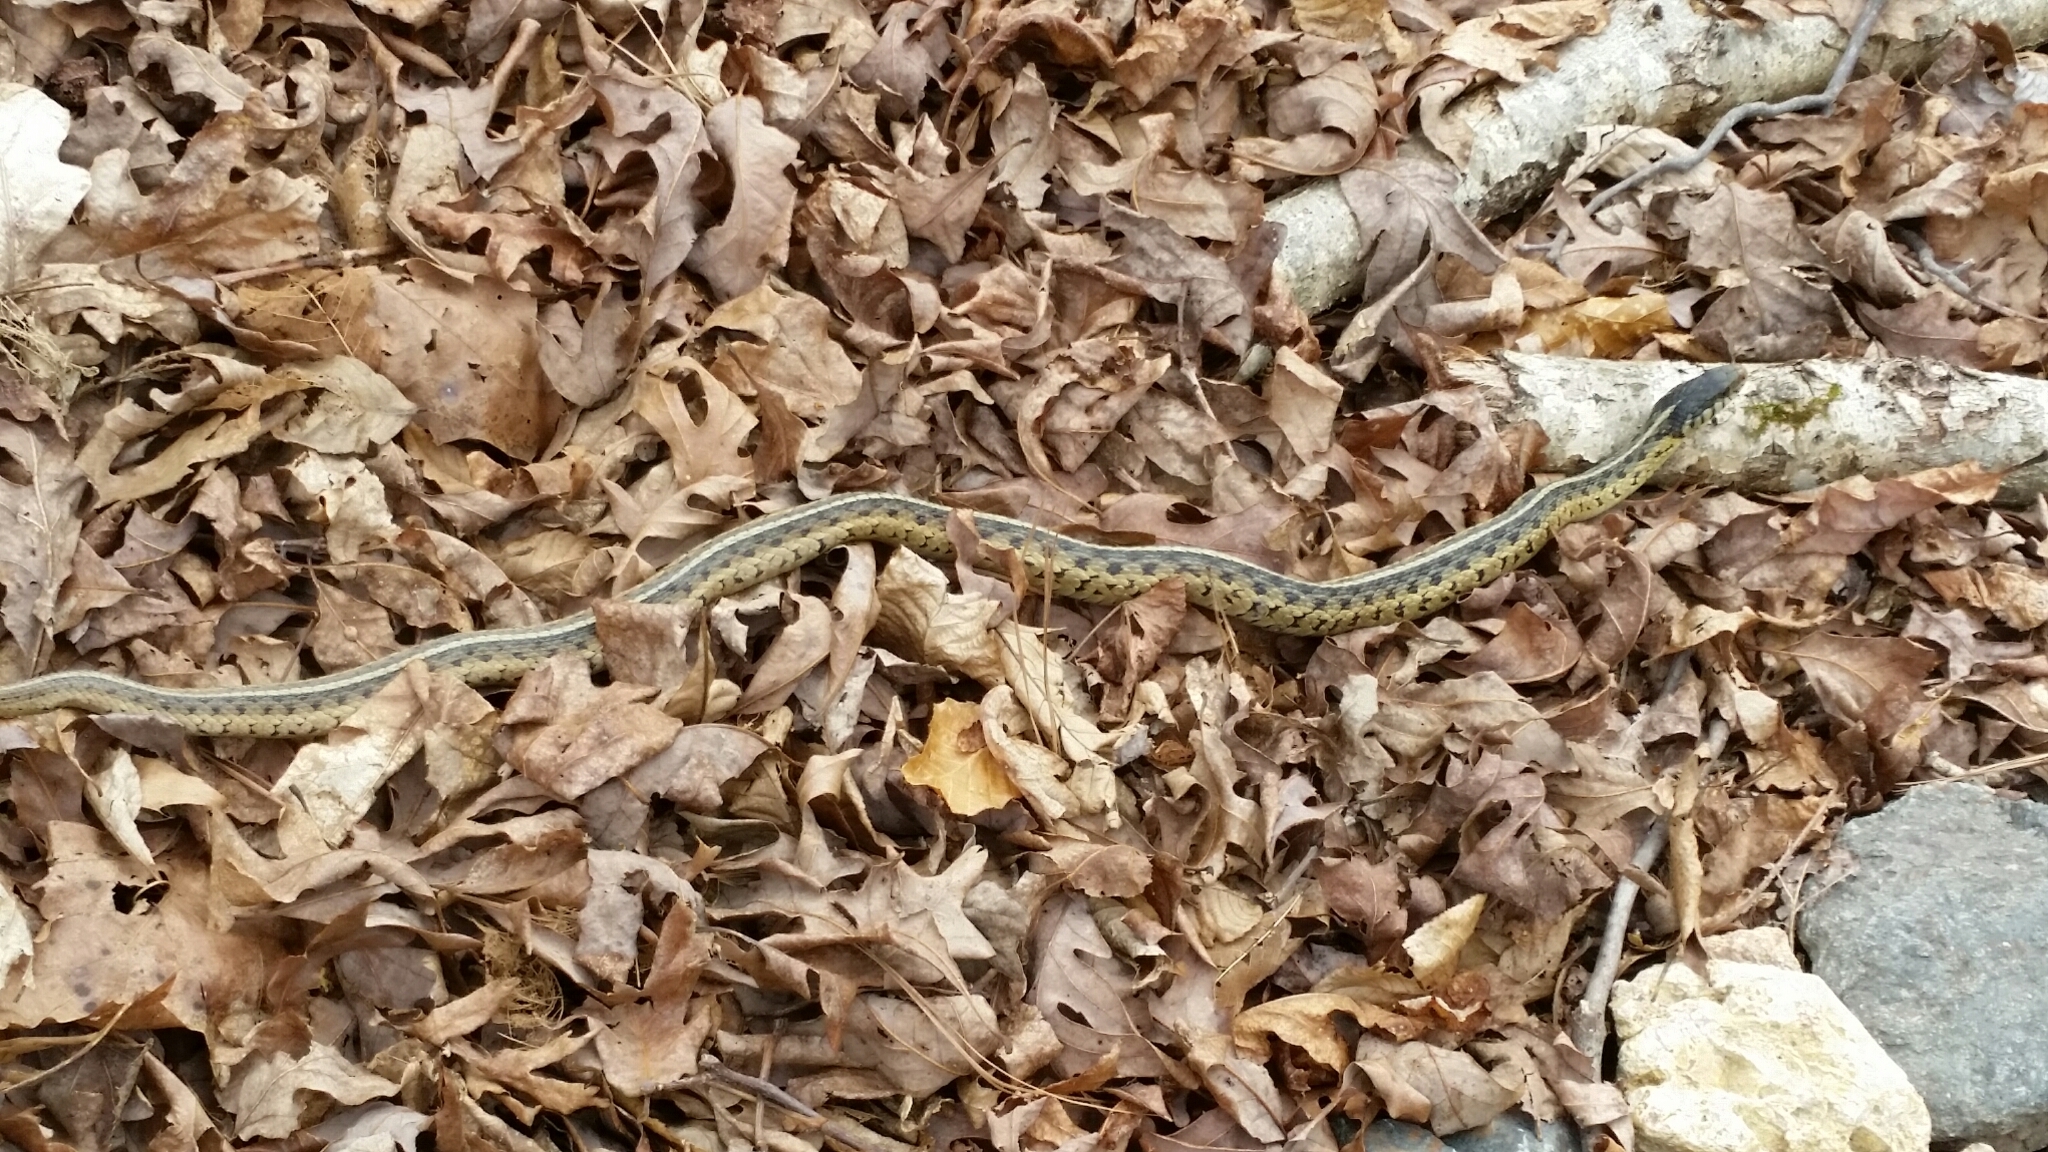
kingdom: Animalia
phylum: Chordata
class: Squamata
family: Colubridae
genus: Thamnophis
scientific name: Thamnophis sirtalis
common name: Common garter snake
